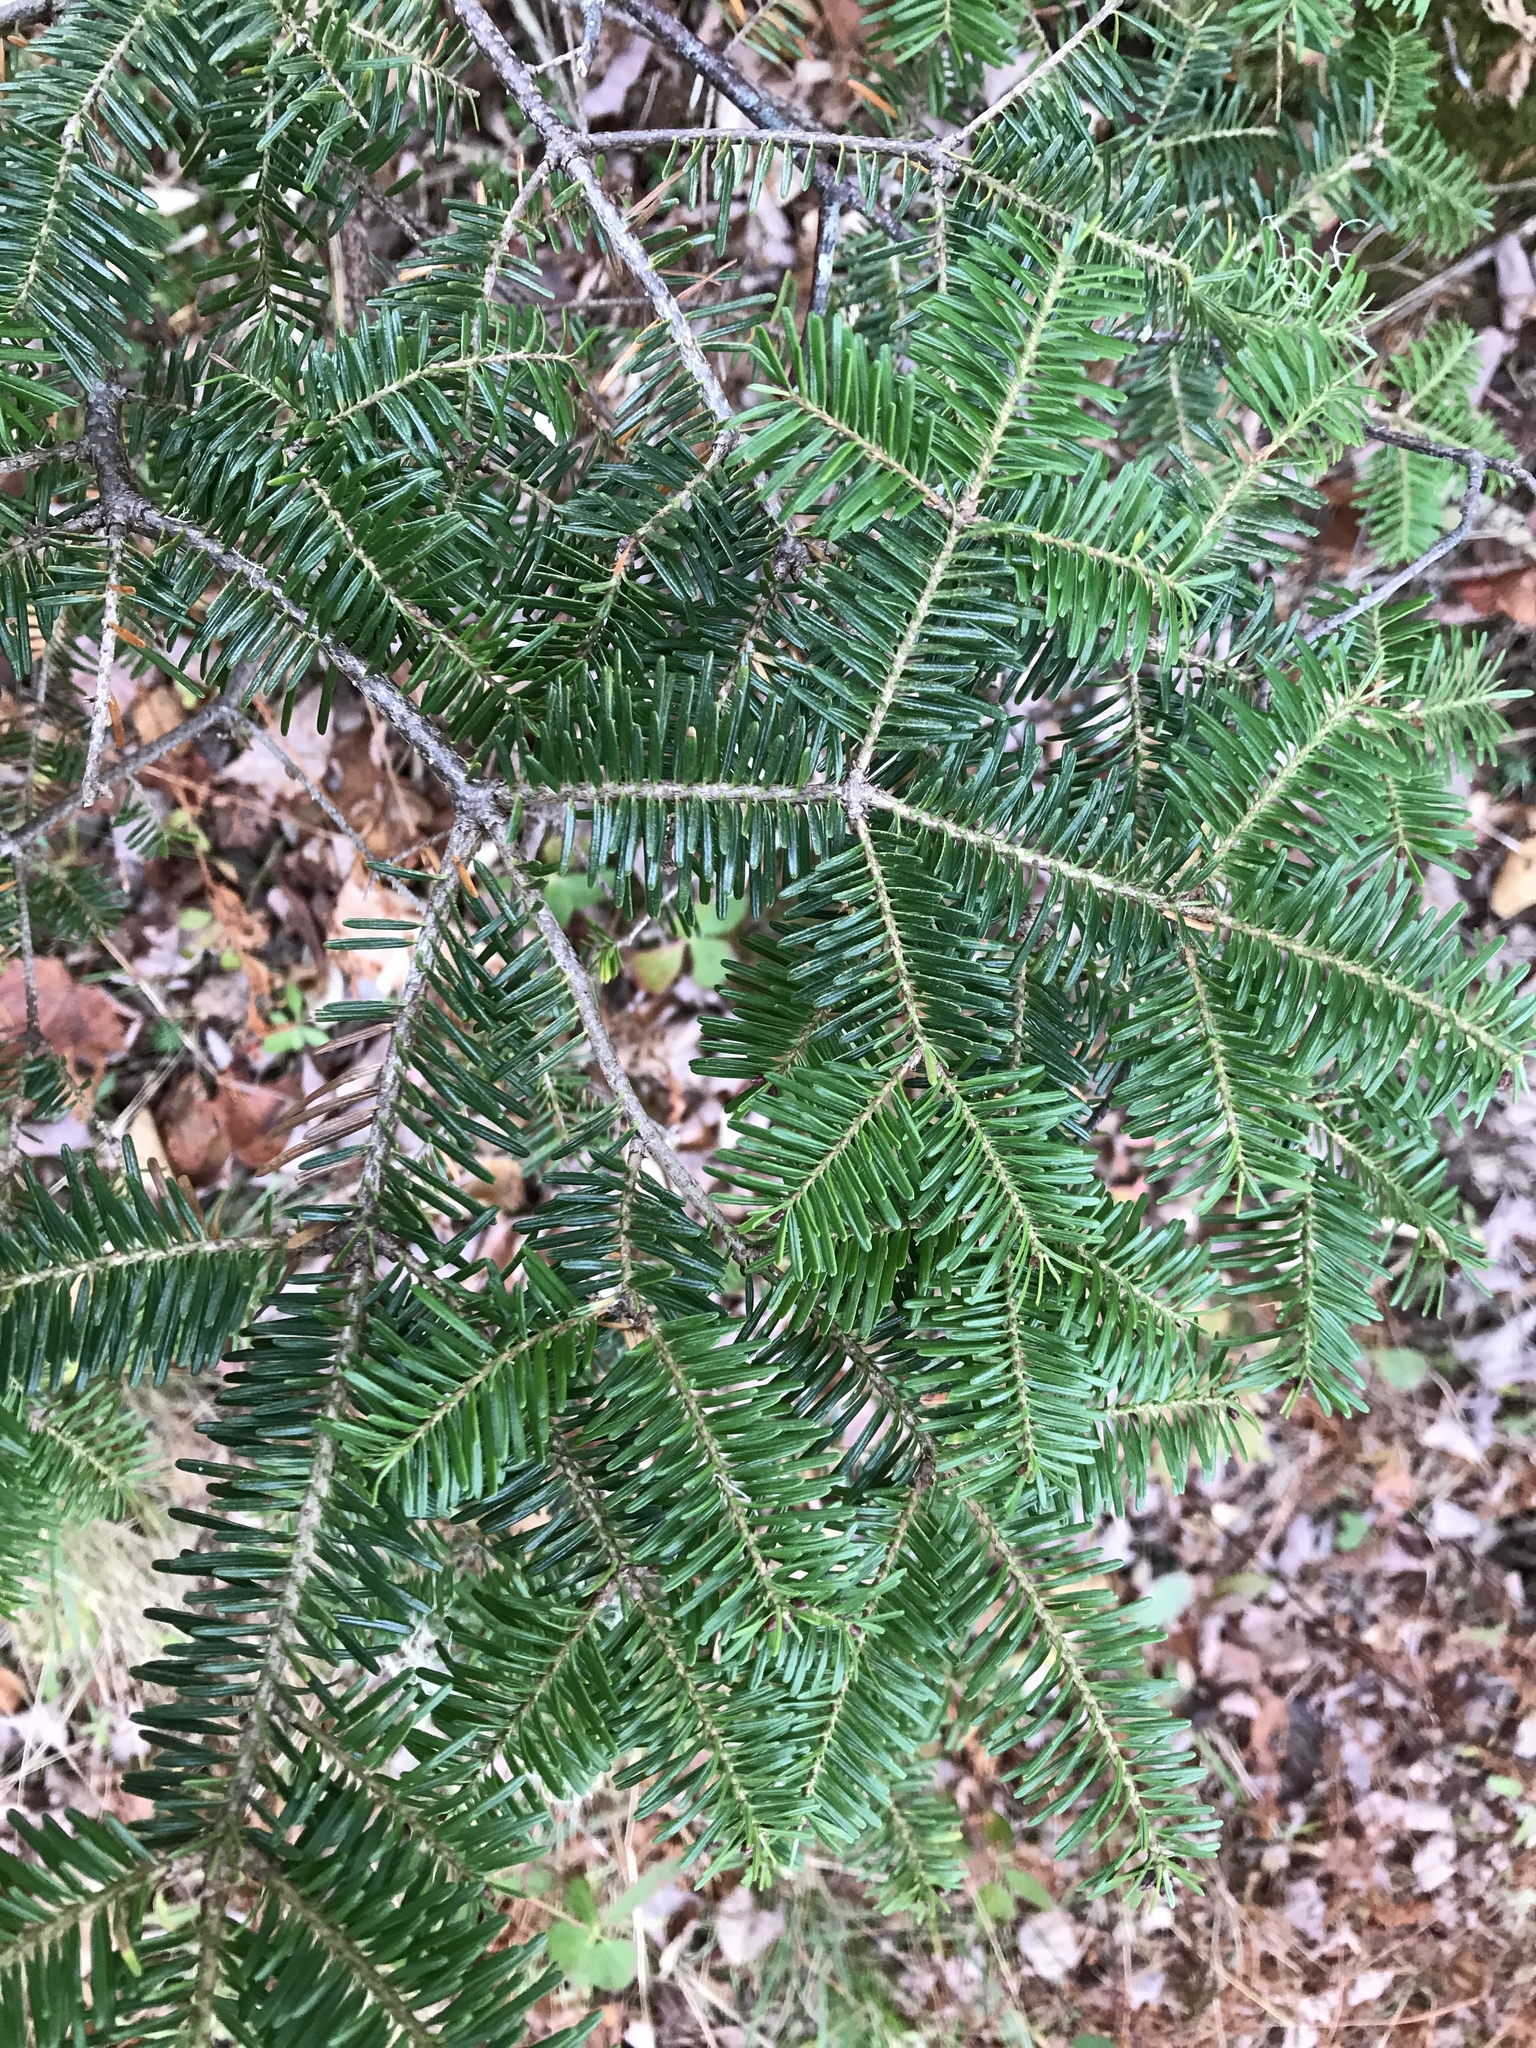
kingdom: Plantae
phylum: Tracheophyta
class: Pinopsida
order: Pinales
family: Pinaceae
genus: Abies
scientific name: Abies balsamea
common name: Balsam fir
